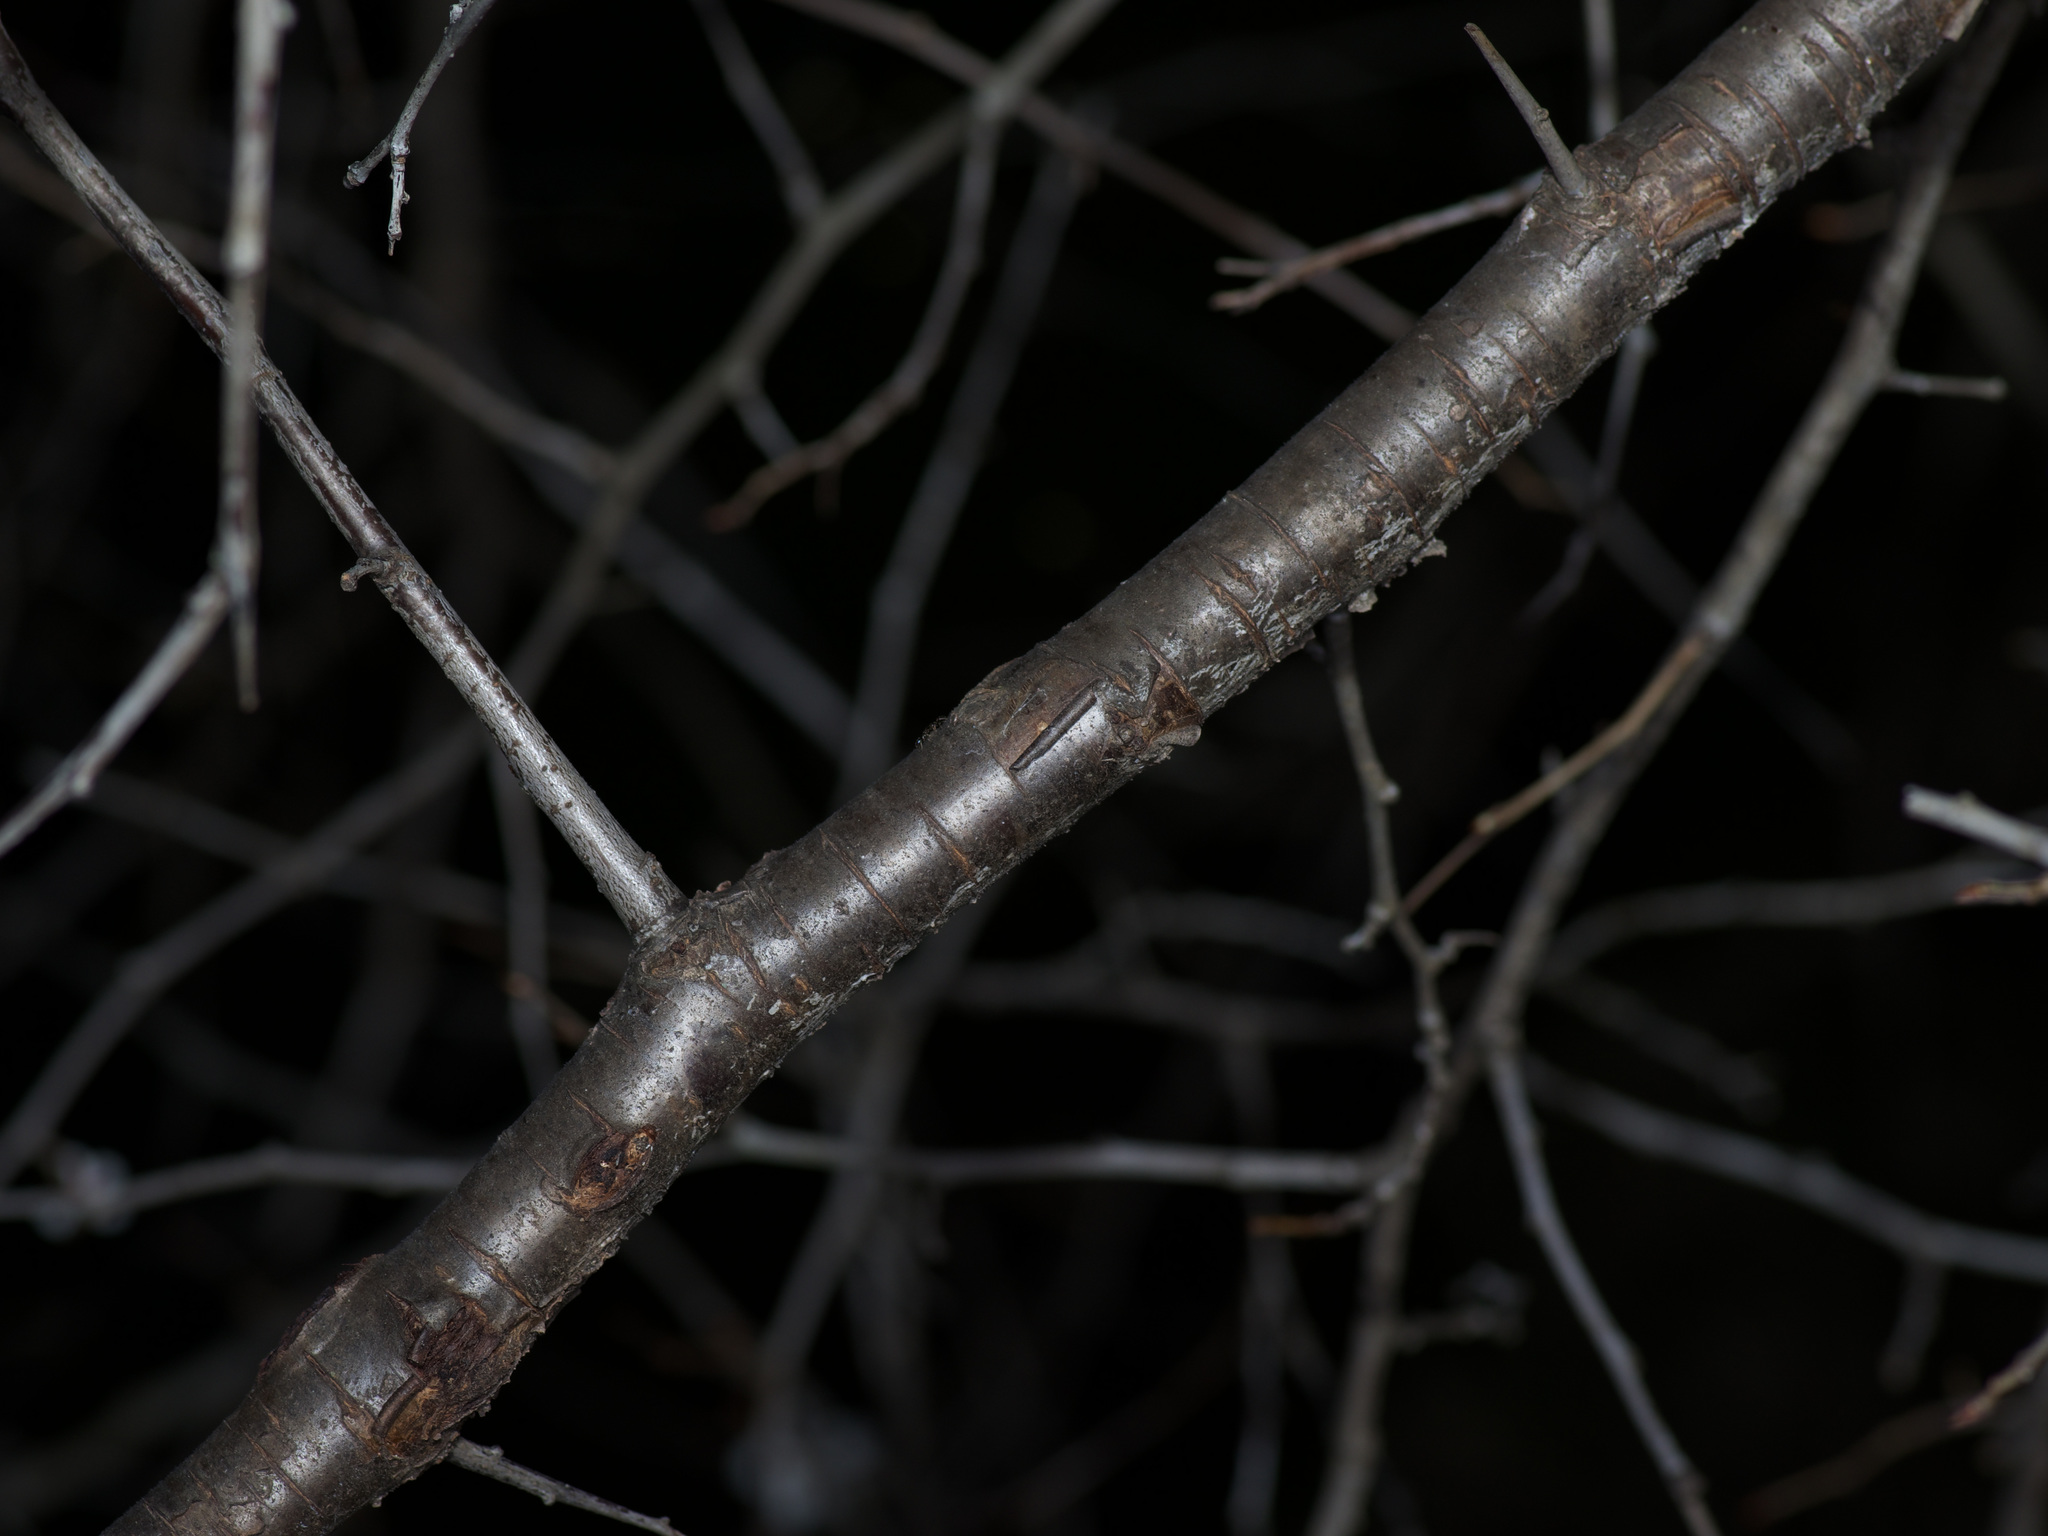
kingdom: Plantae
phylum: Tracheophyta
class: Magnoliopsida
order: Rosales
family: Rosaceae
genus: Prunus
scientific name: Prunus mexicana
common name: Mexican plum
